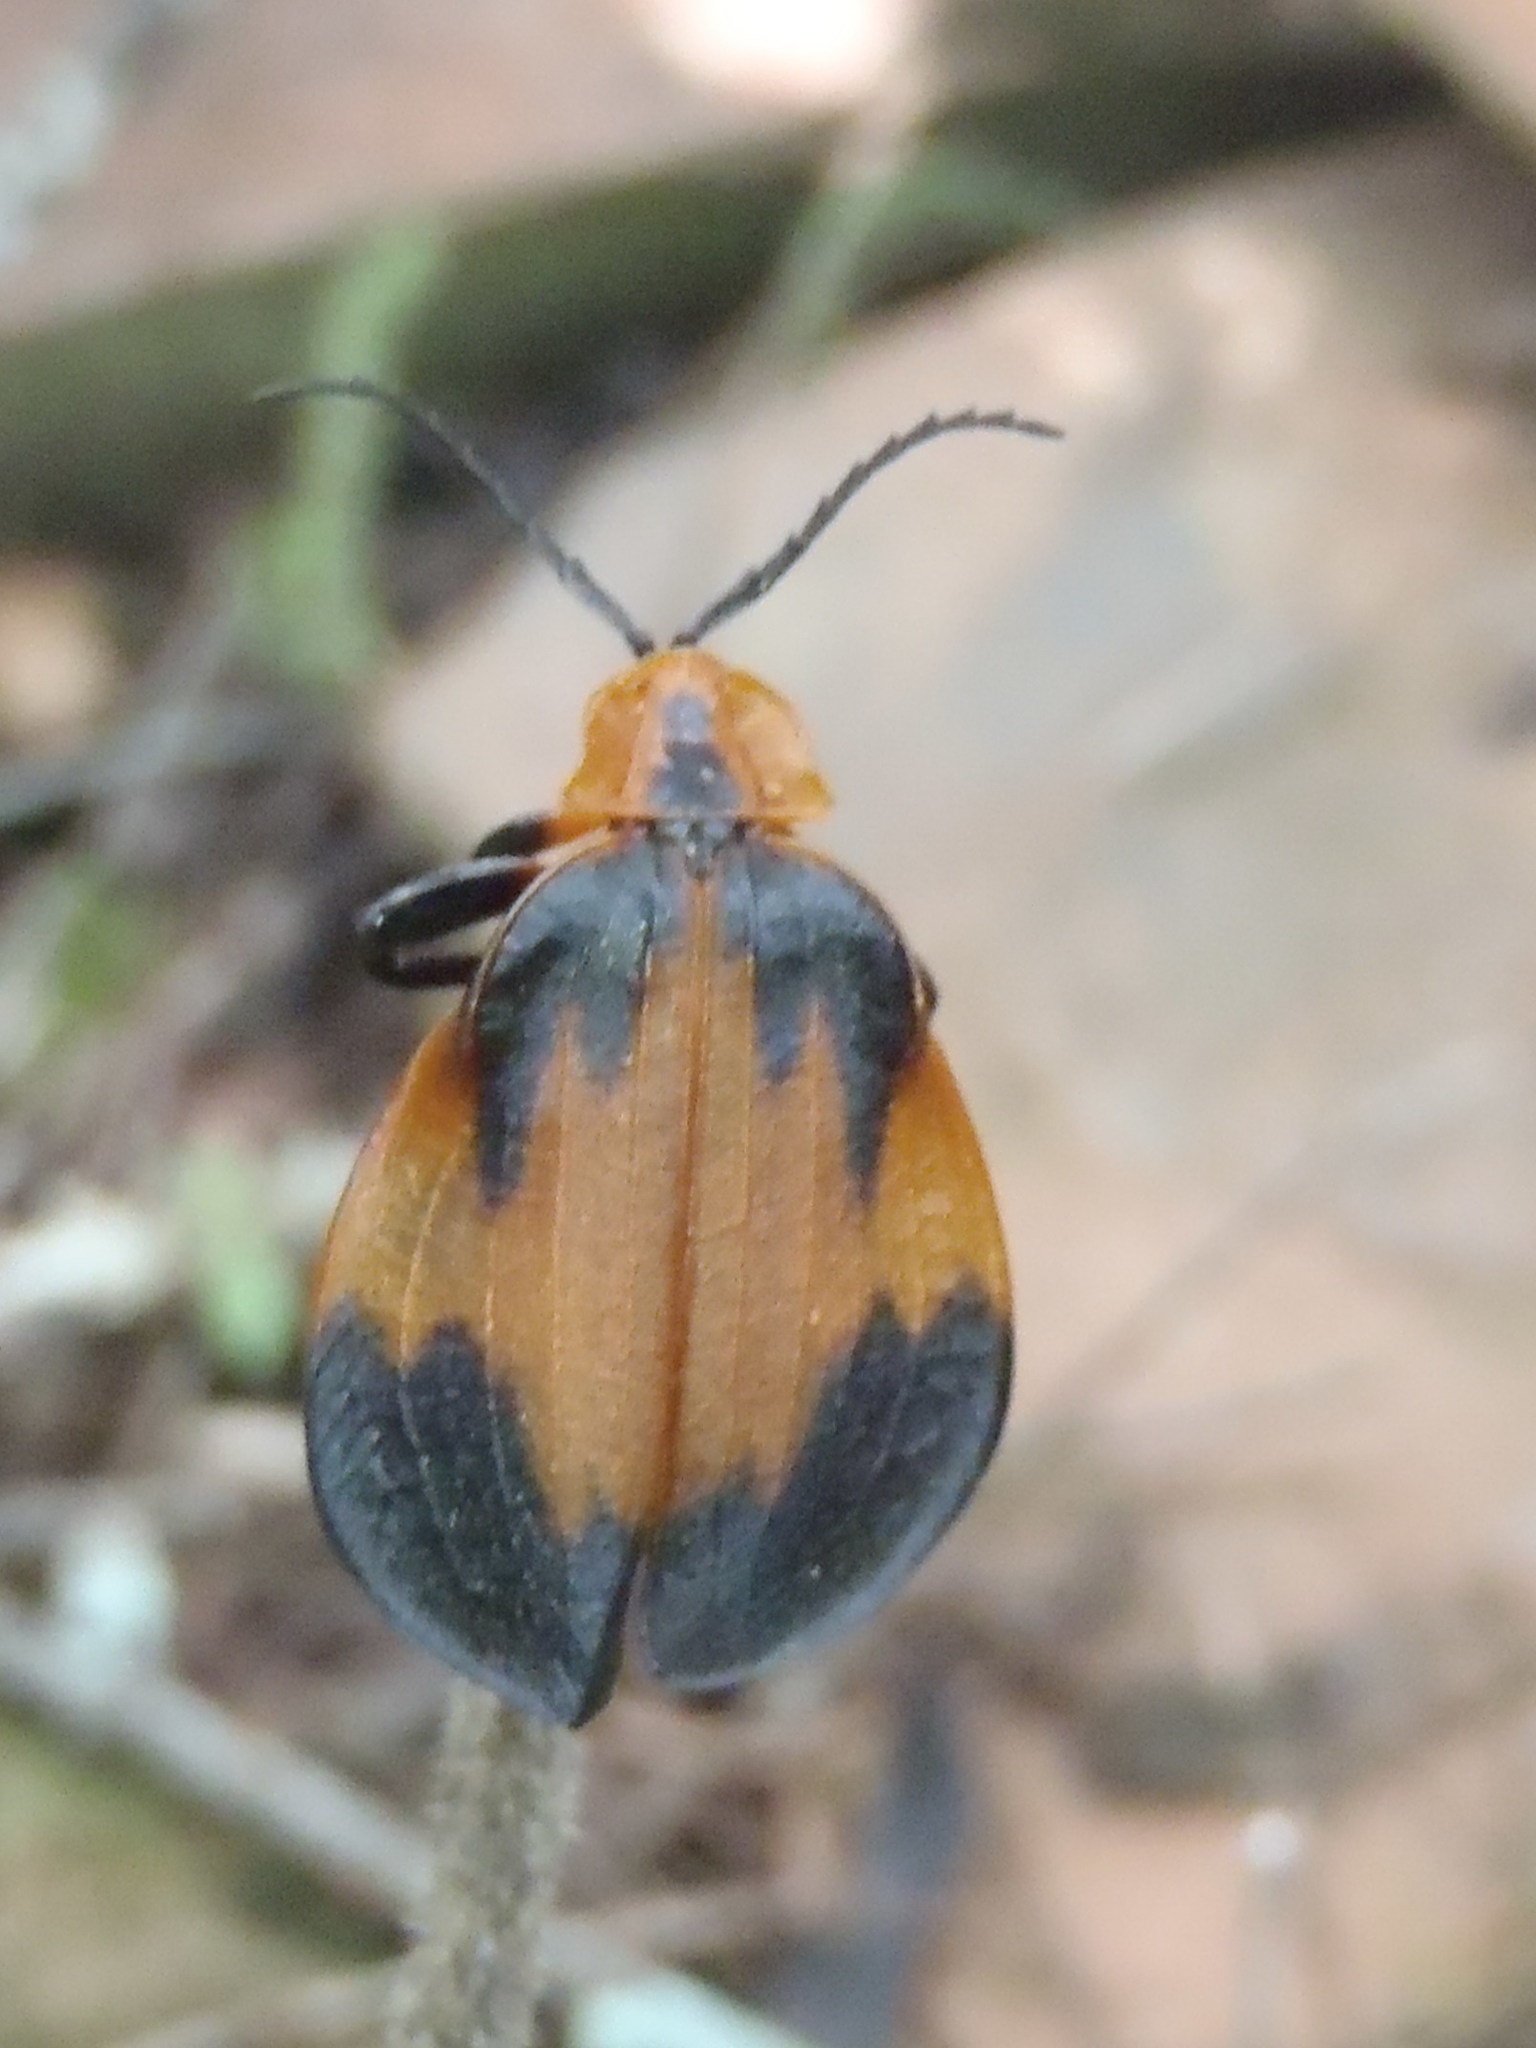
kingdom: Animalia
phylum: Arthropoda
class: Insecta
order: Coleoptera
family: Lycidae
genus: Lycus
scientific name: Lycus
